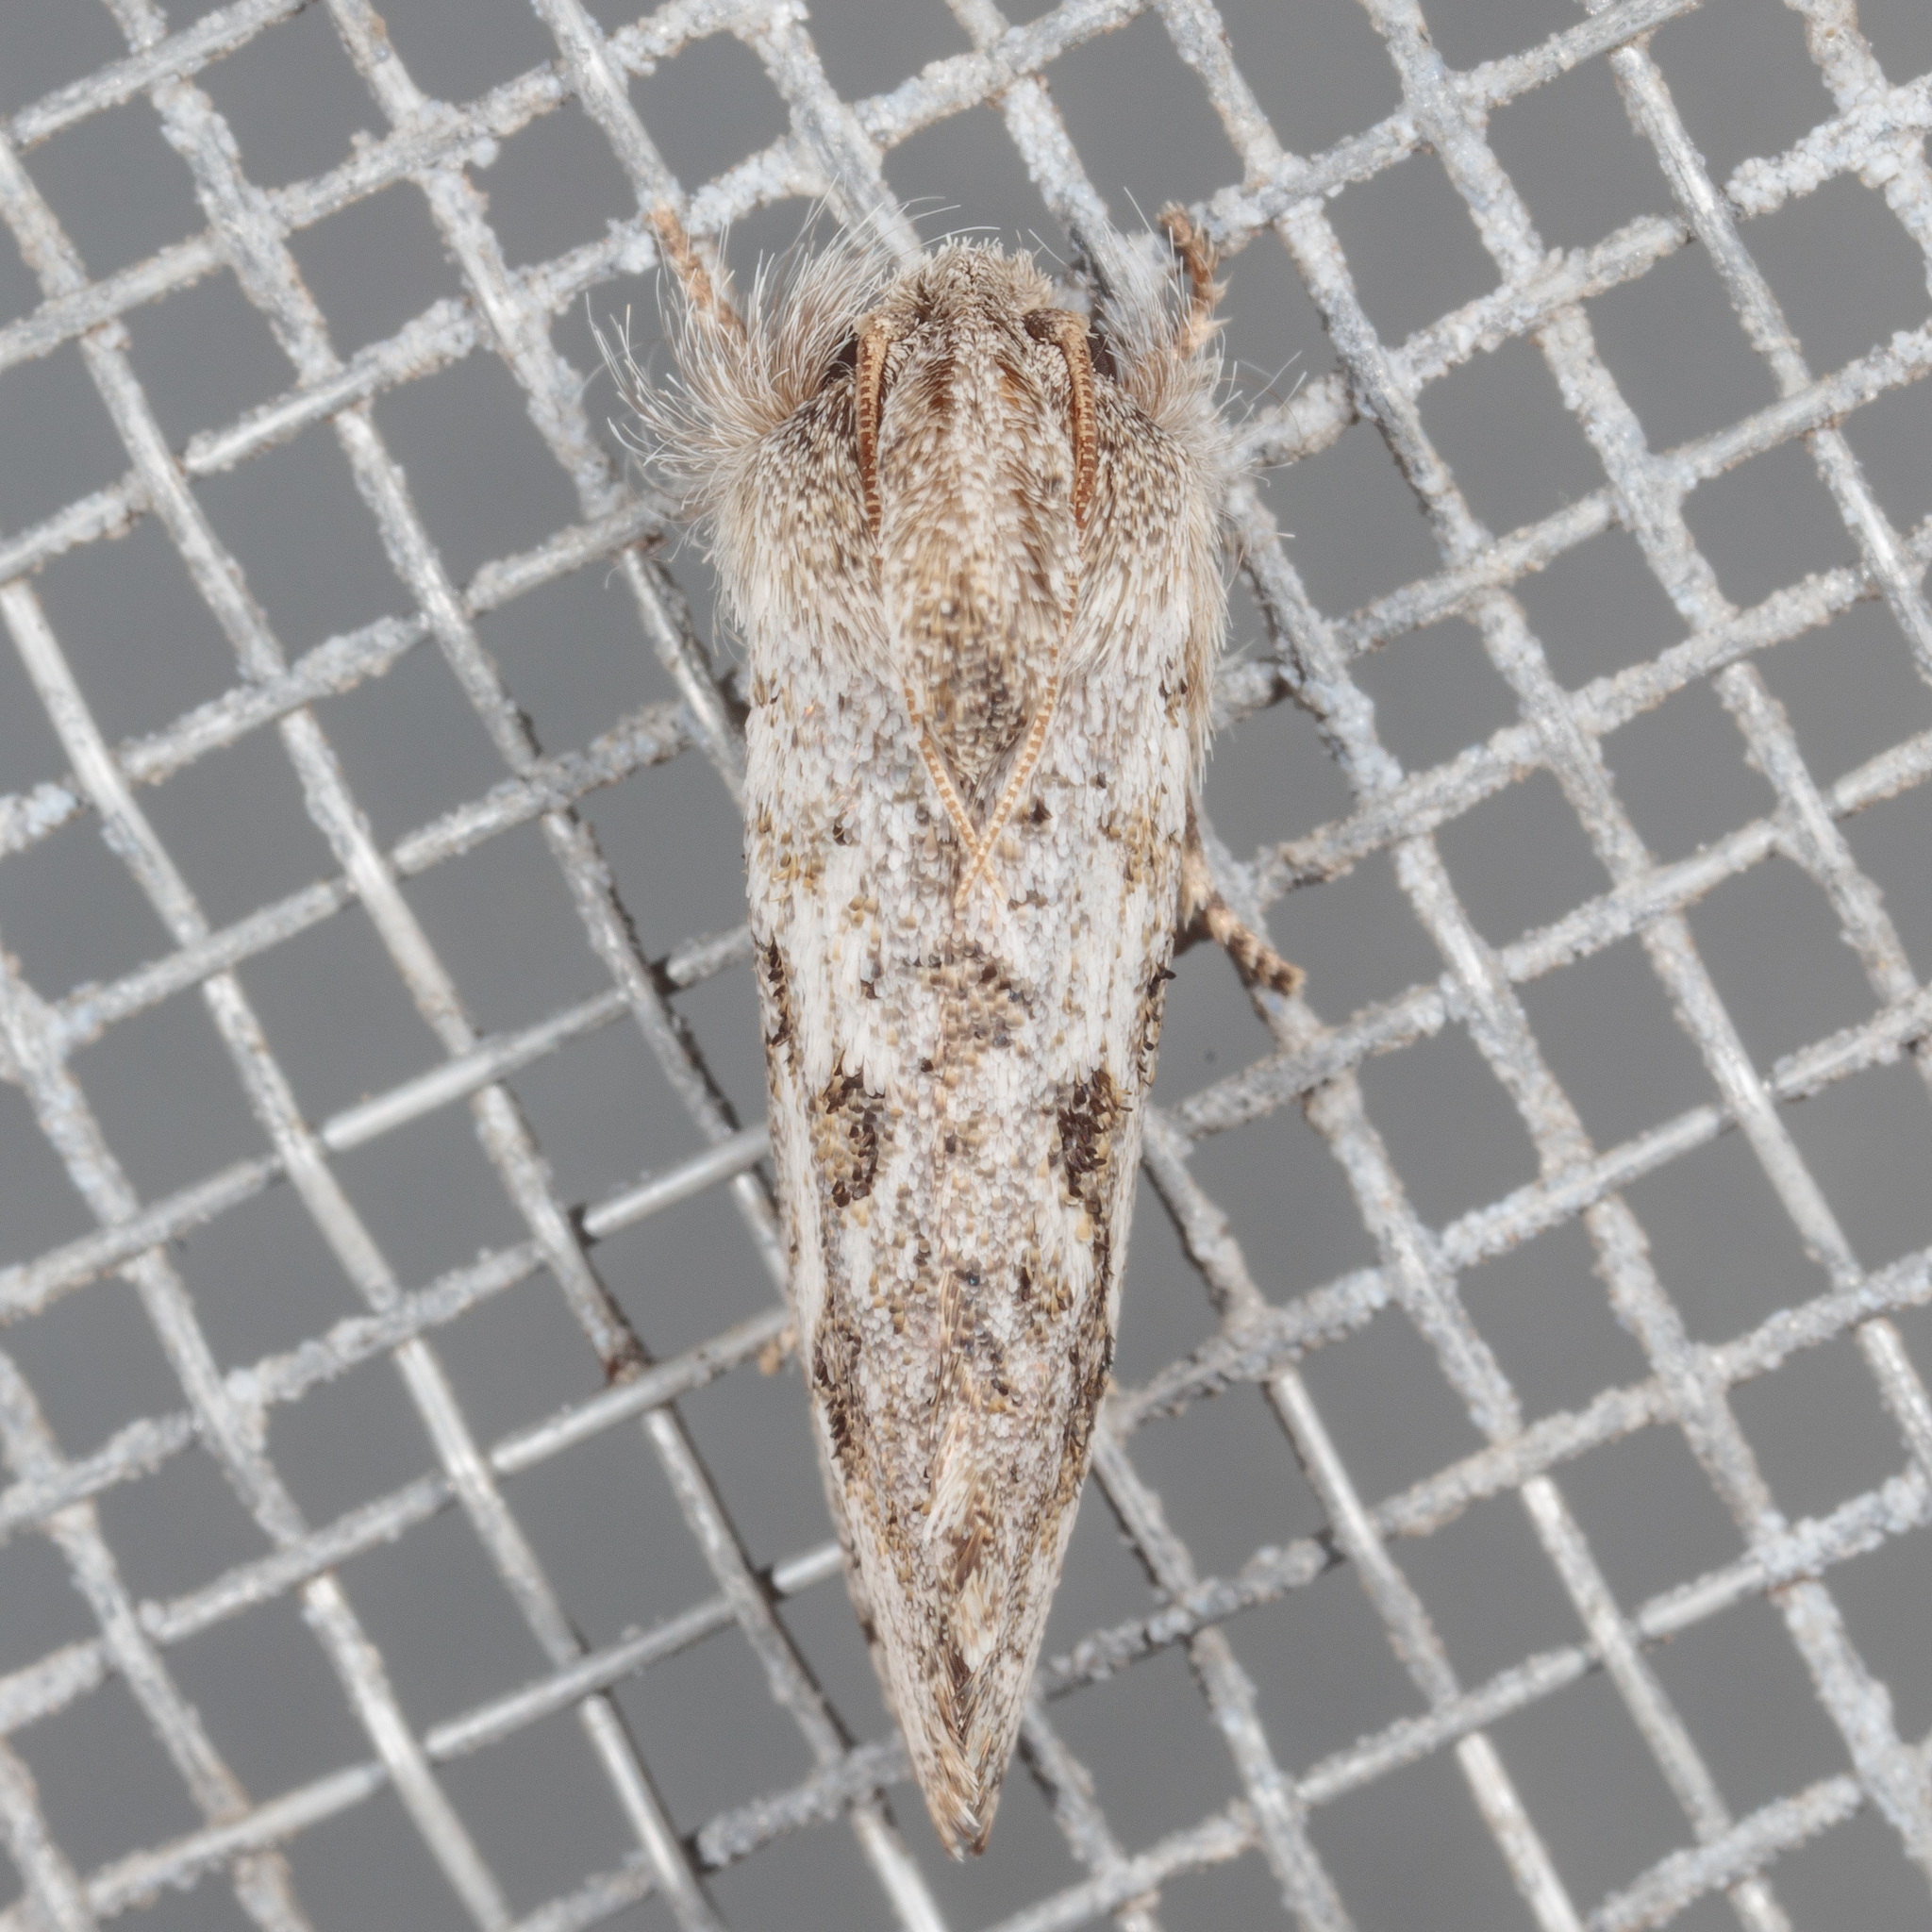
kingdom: Animalia
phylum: Arthropoda
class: Insecta
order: Lepidoptera
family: Tineidae
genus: Acrolophus
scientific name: Acrolophus griseus
